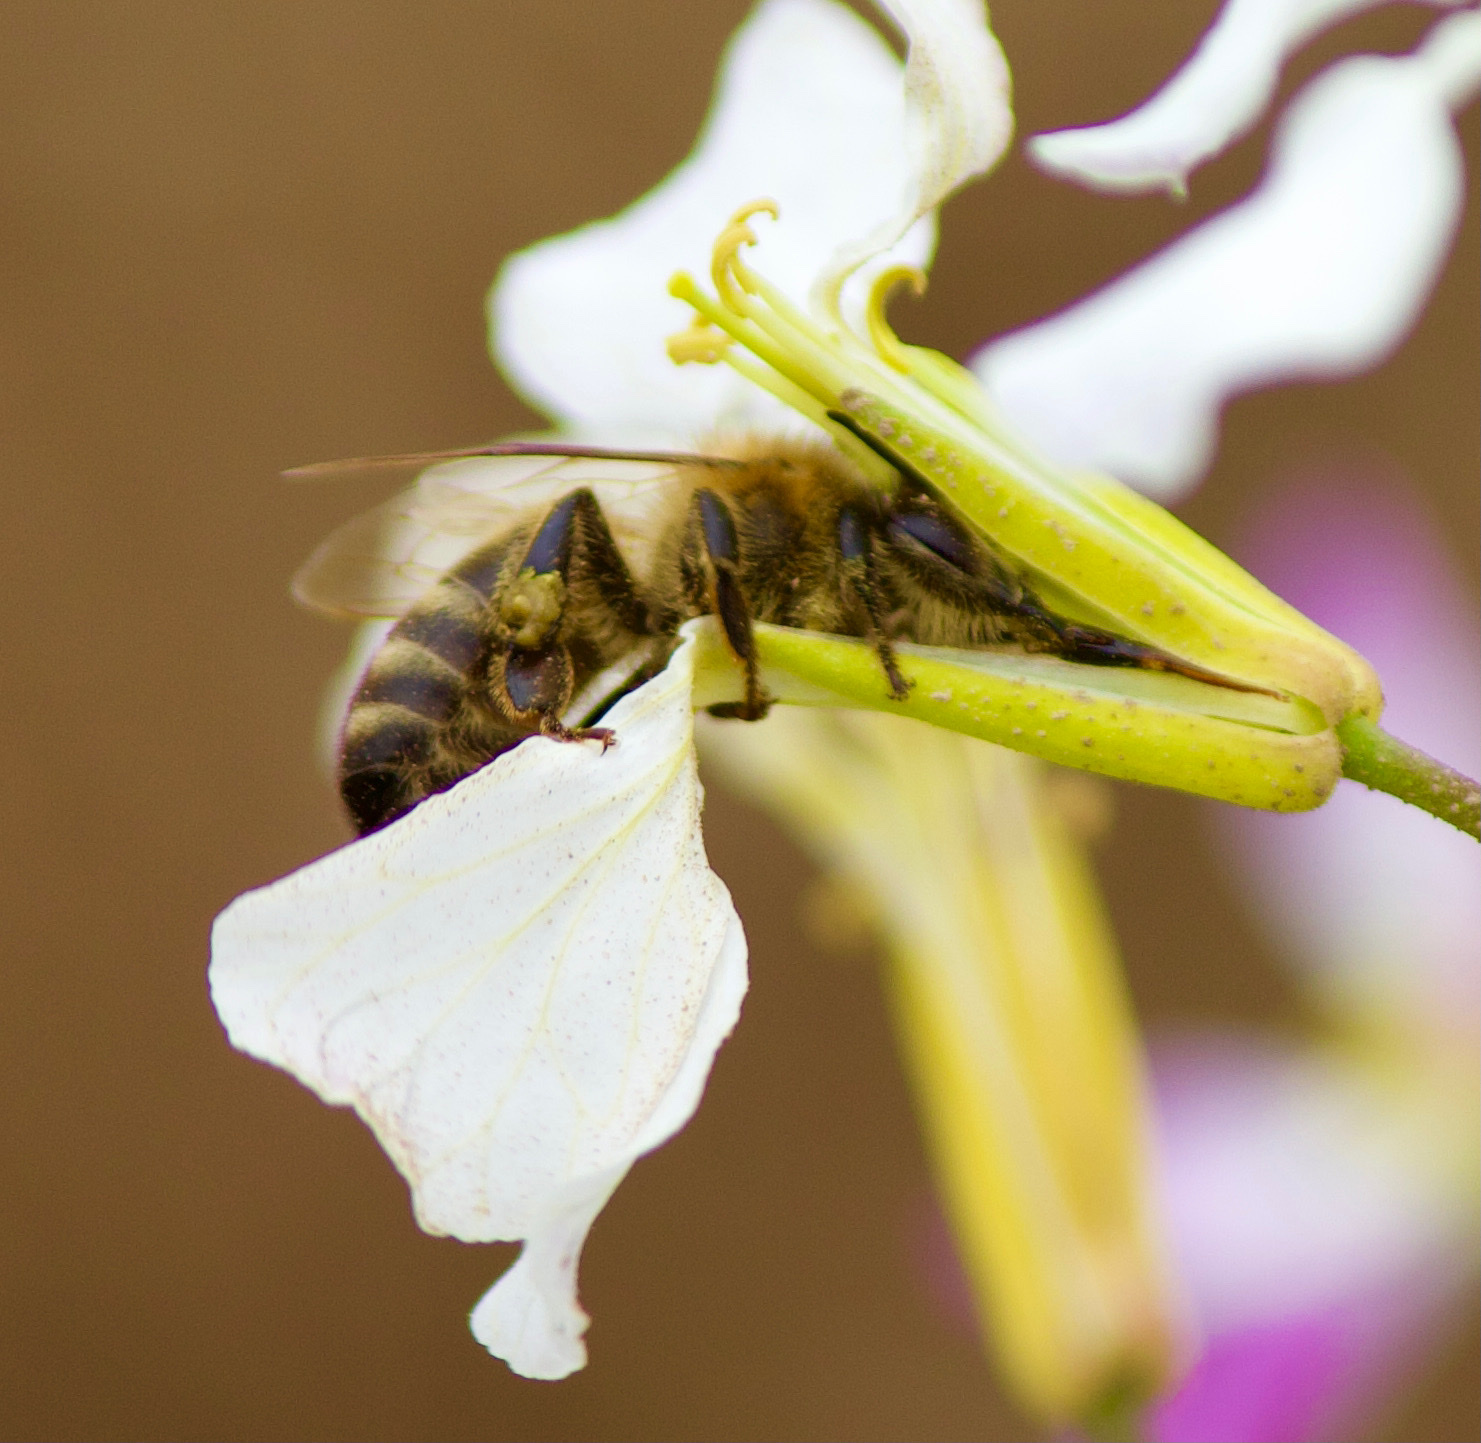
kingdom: Animalia
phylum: Arthropoda
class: Insecta
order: Hymenoptera
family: Apidae
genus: Apis
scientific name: Apis mellifera
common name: Honey bee
